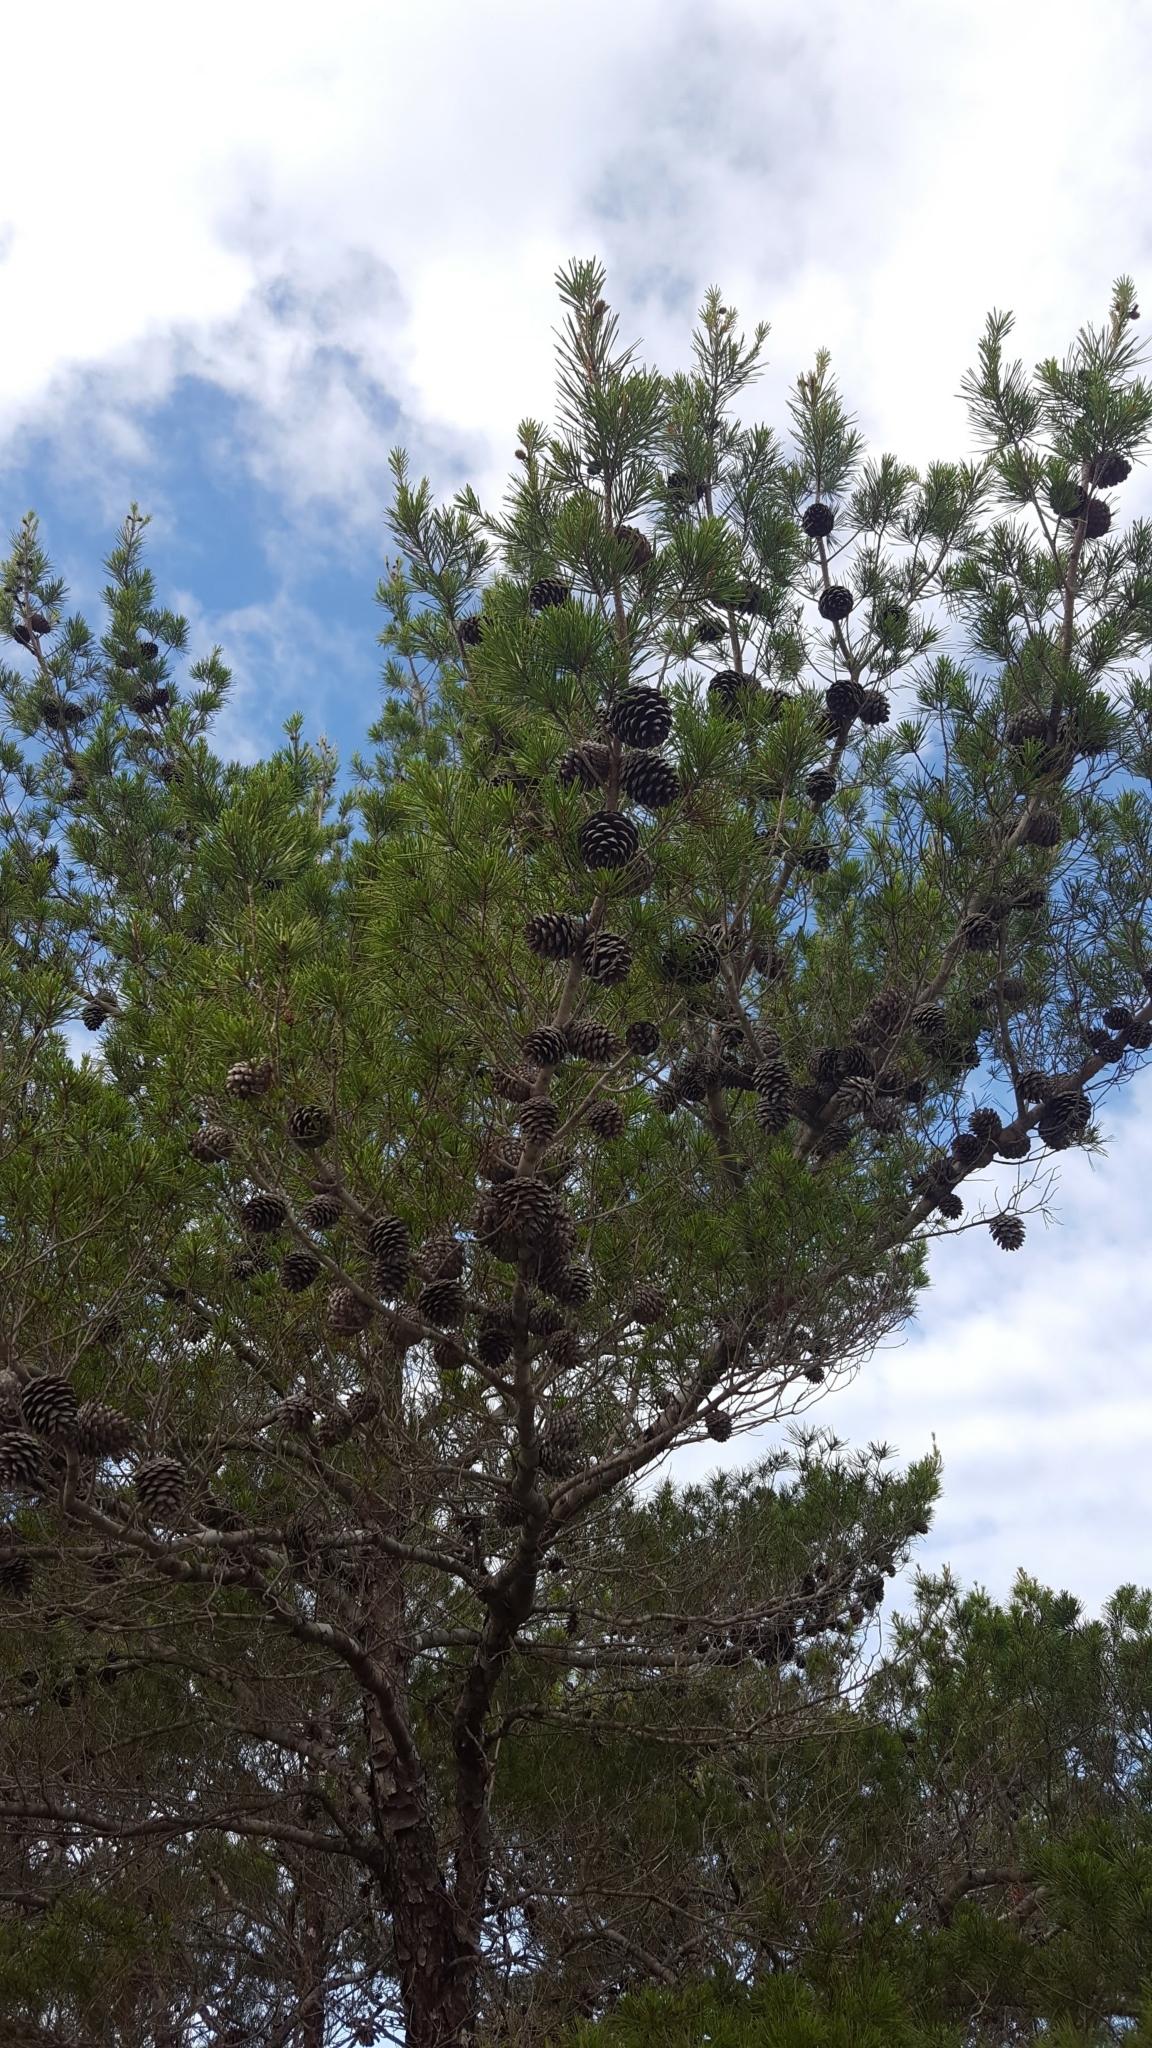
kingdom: Plantae
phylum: Tracheophyta
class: Pinopsida
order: Pinales
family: Pinaceae
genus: Pinus
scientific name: Pinus clausa
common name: Sand pine
